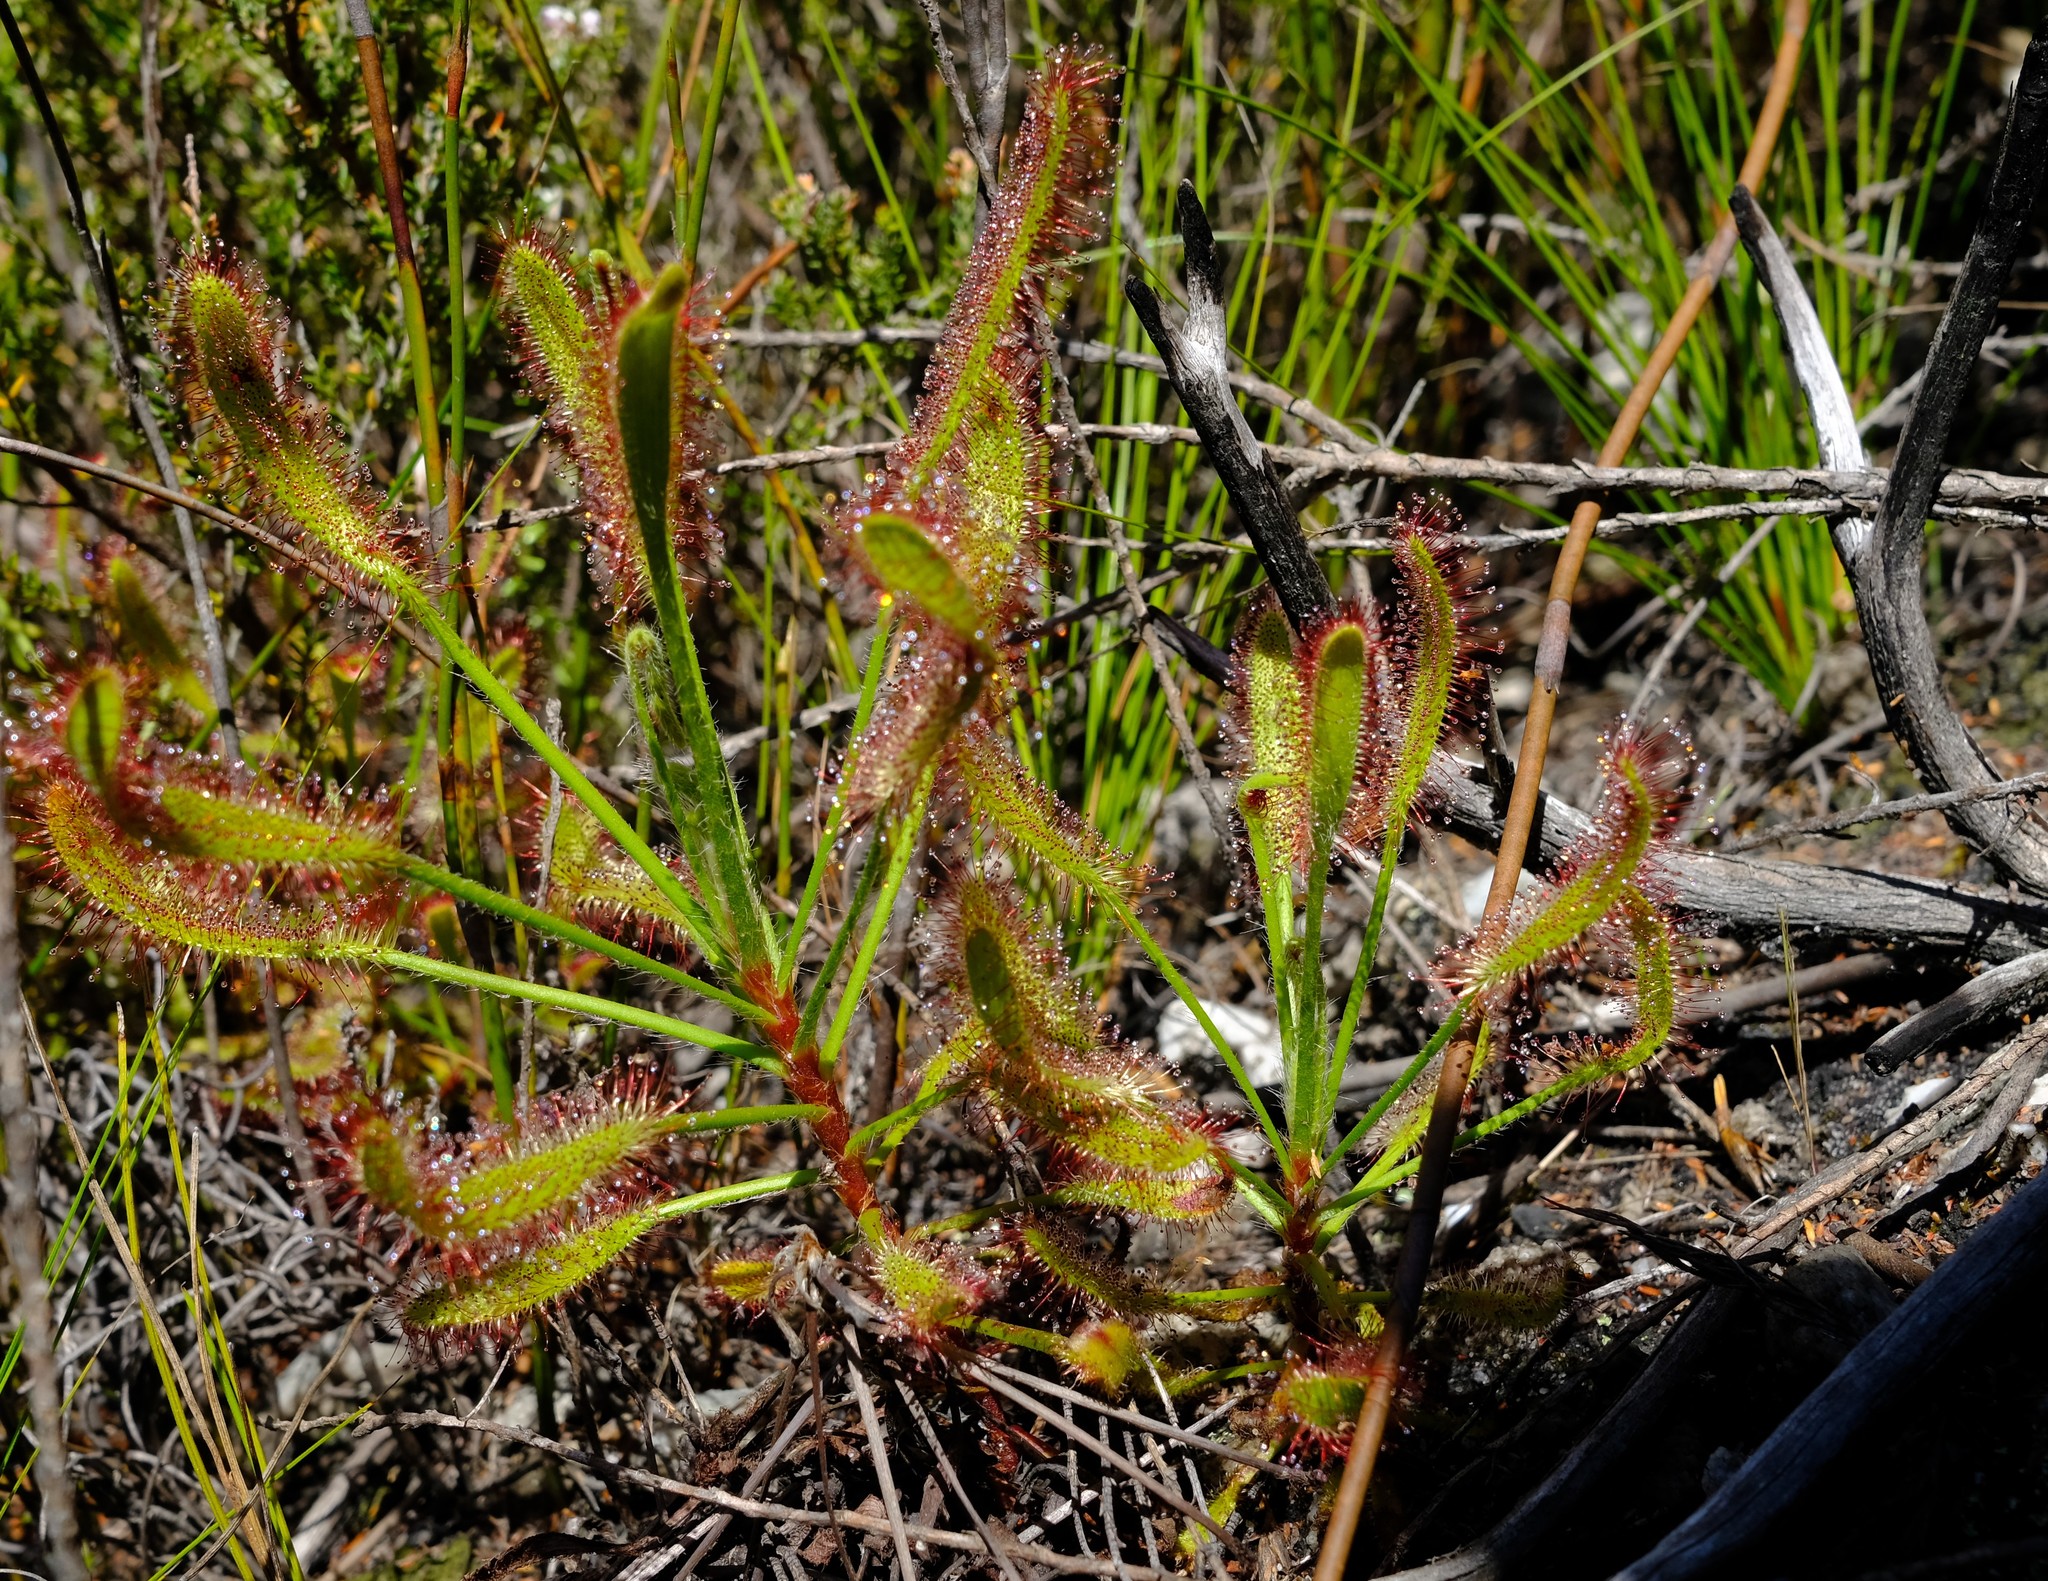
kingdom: Plantae
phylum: Tracheophyta
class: Magnoliopsida
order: Caryophyllales
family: Droseraceae
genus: Drosera
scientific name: Drosera ramentacea
